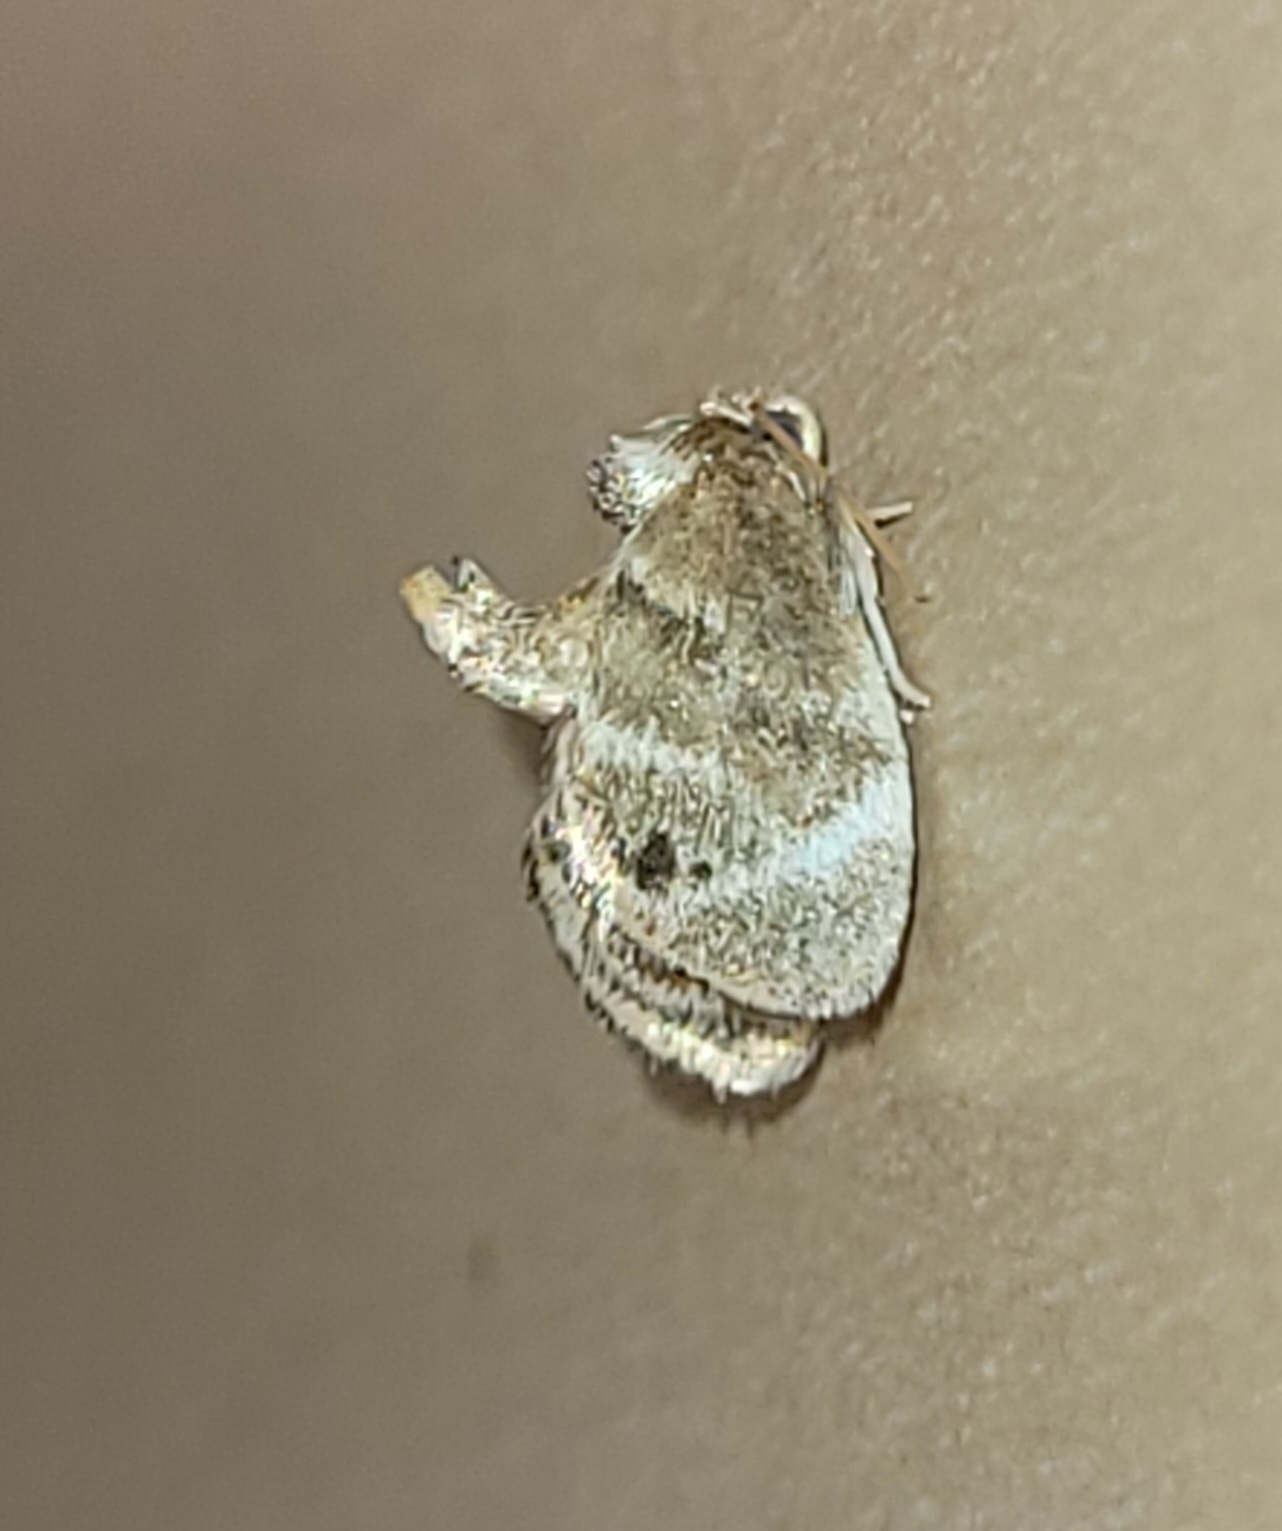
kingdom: Animalia
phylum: Arthropoda
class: Insecta
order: Lepidoptera
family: Limacodidae
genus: Packardia
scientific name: Packardia elegans
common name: Elegant tailed slug moth
